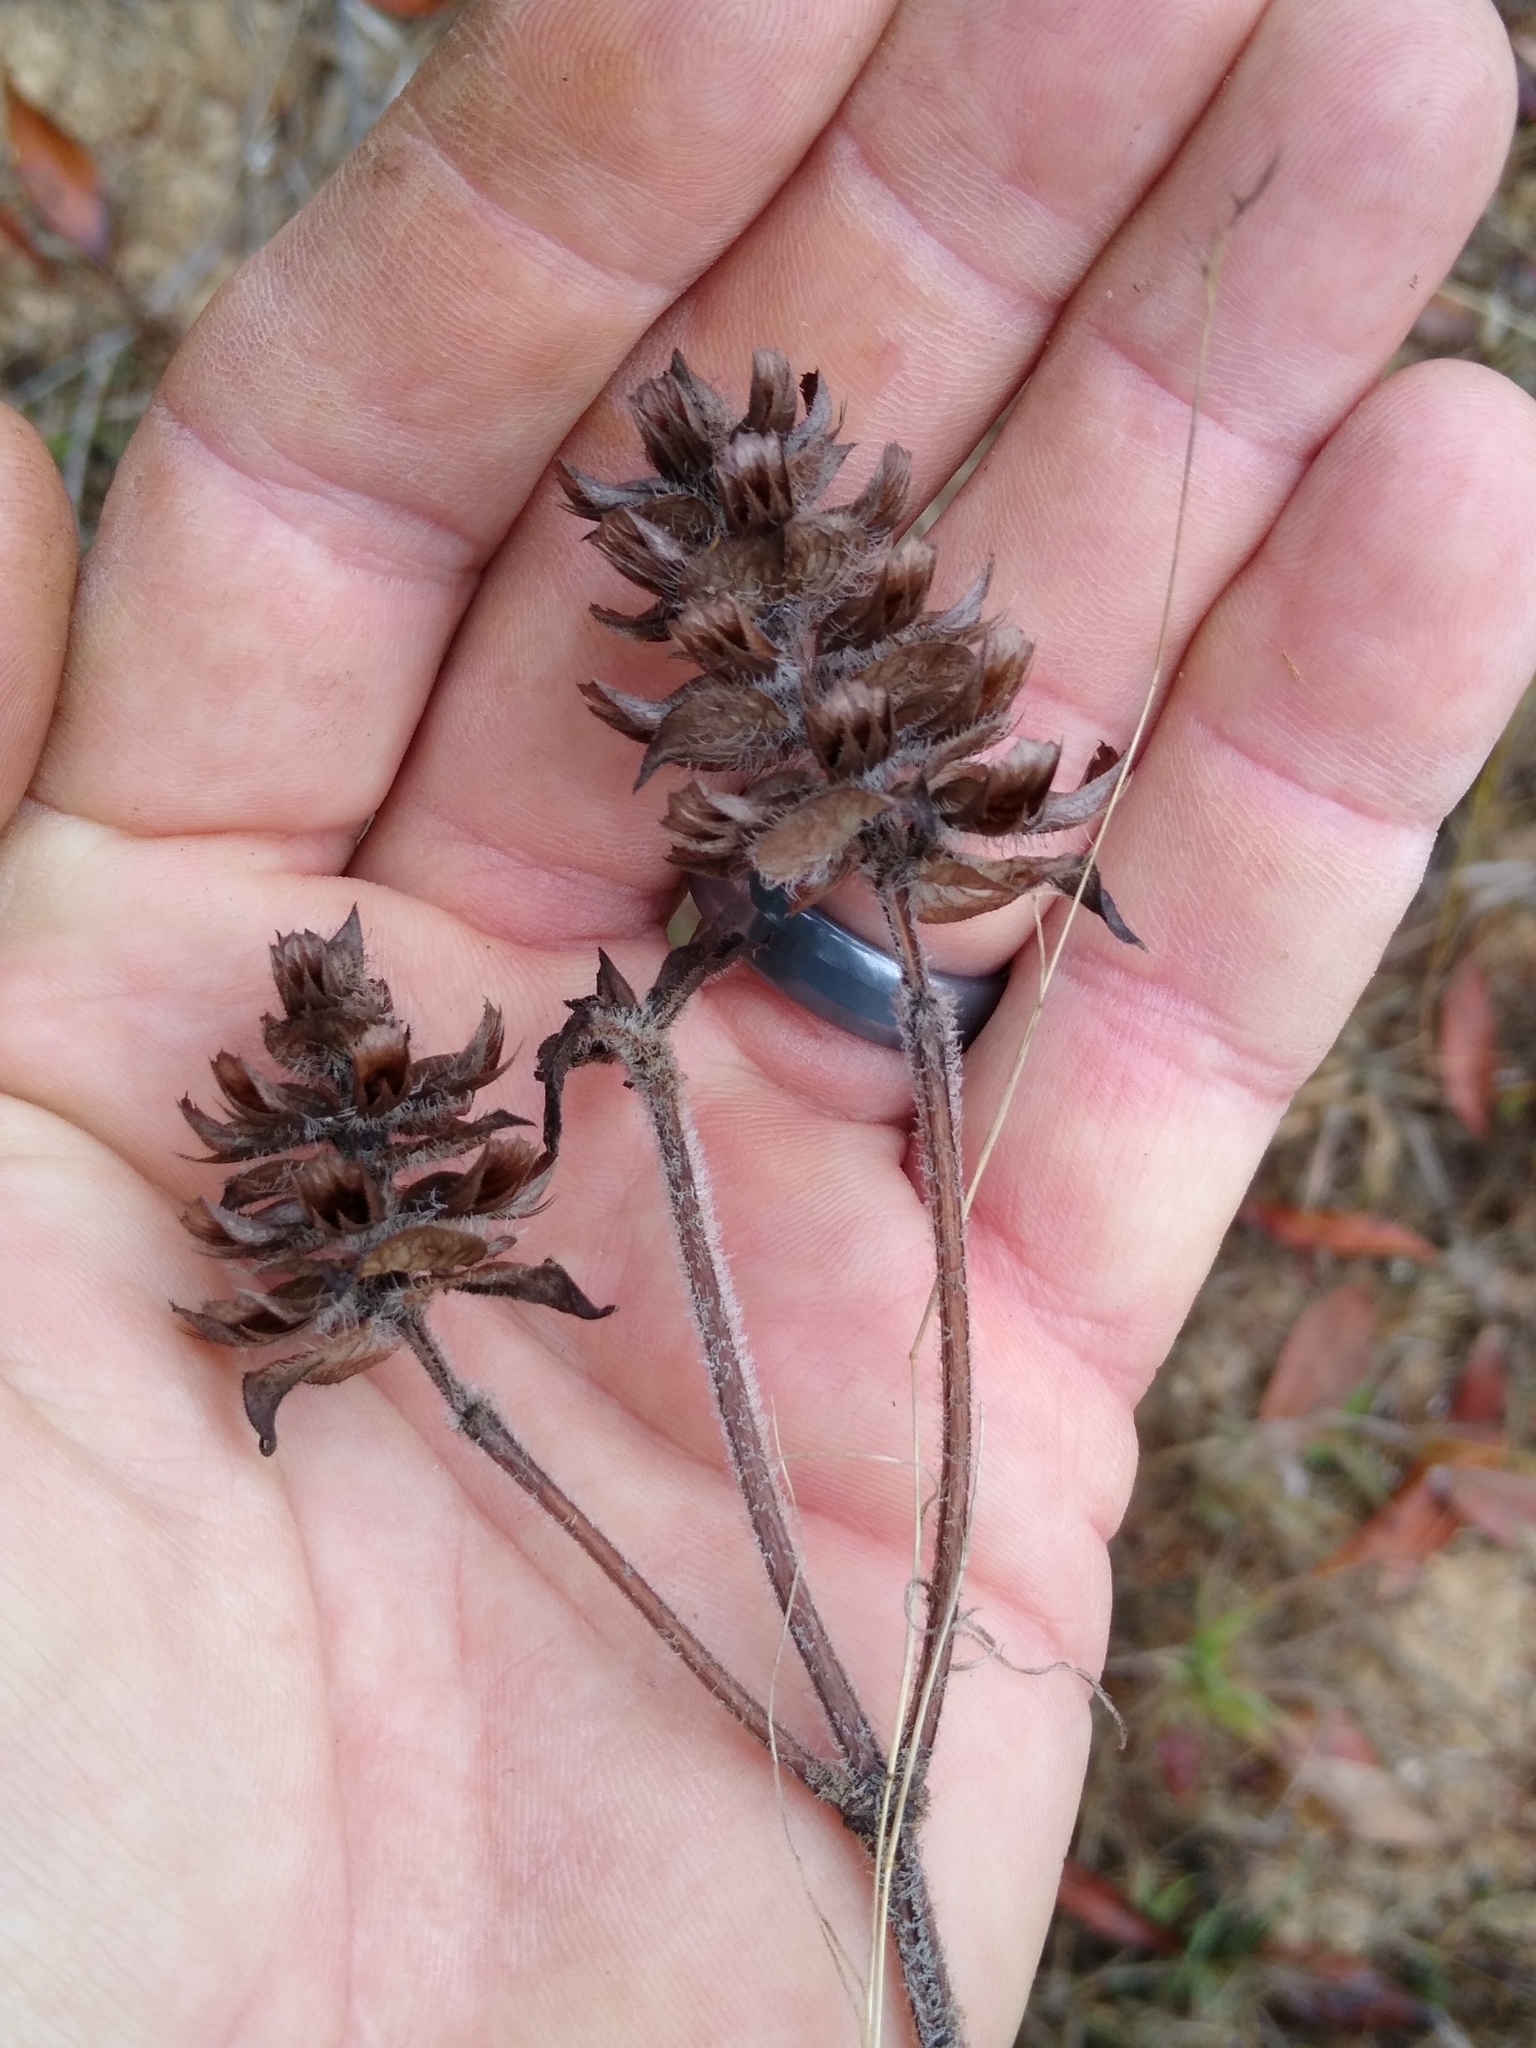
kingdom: Plantae
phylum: Tracheophyta
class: Magnoliopsida
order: Lamiales
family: Lamiaceae
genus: Prunella
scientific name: Prunella vulgaris
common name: Heal-all
